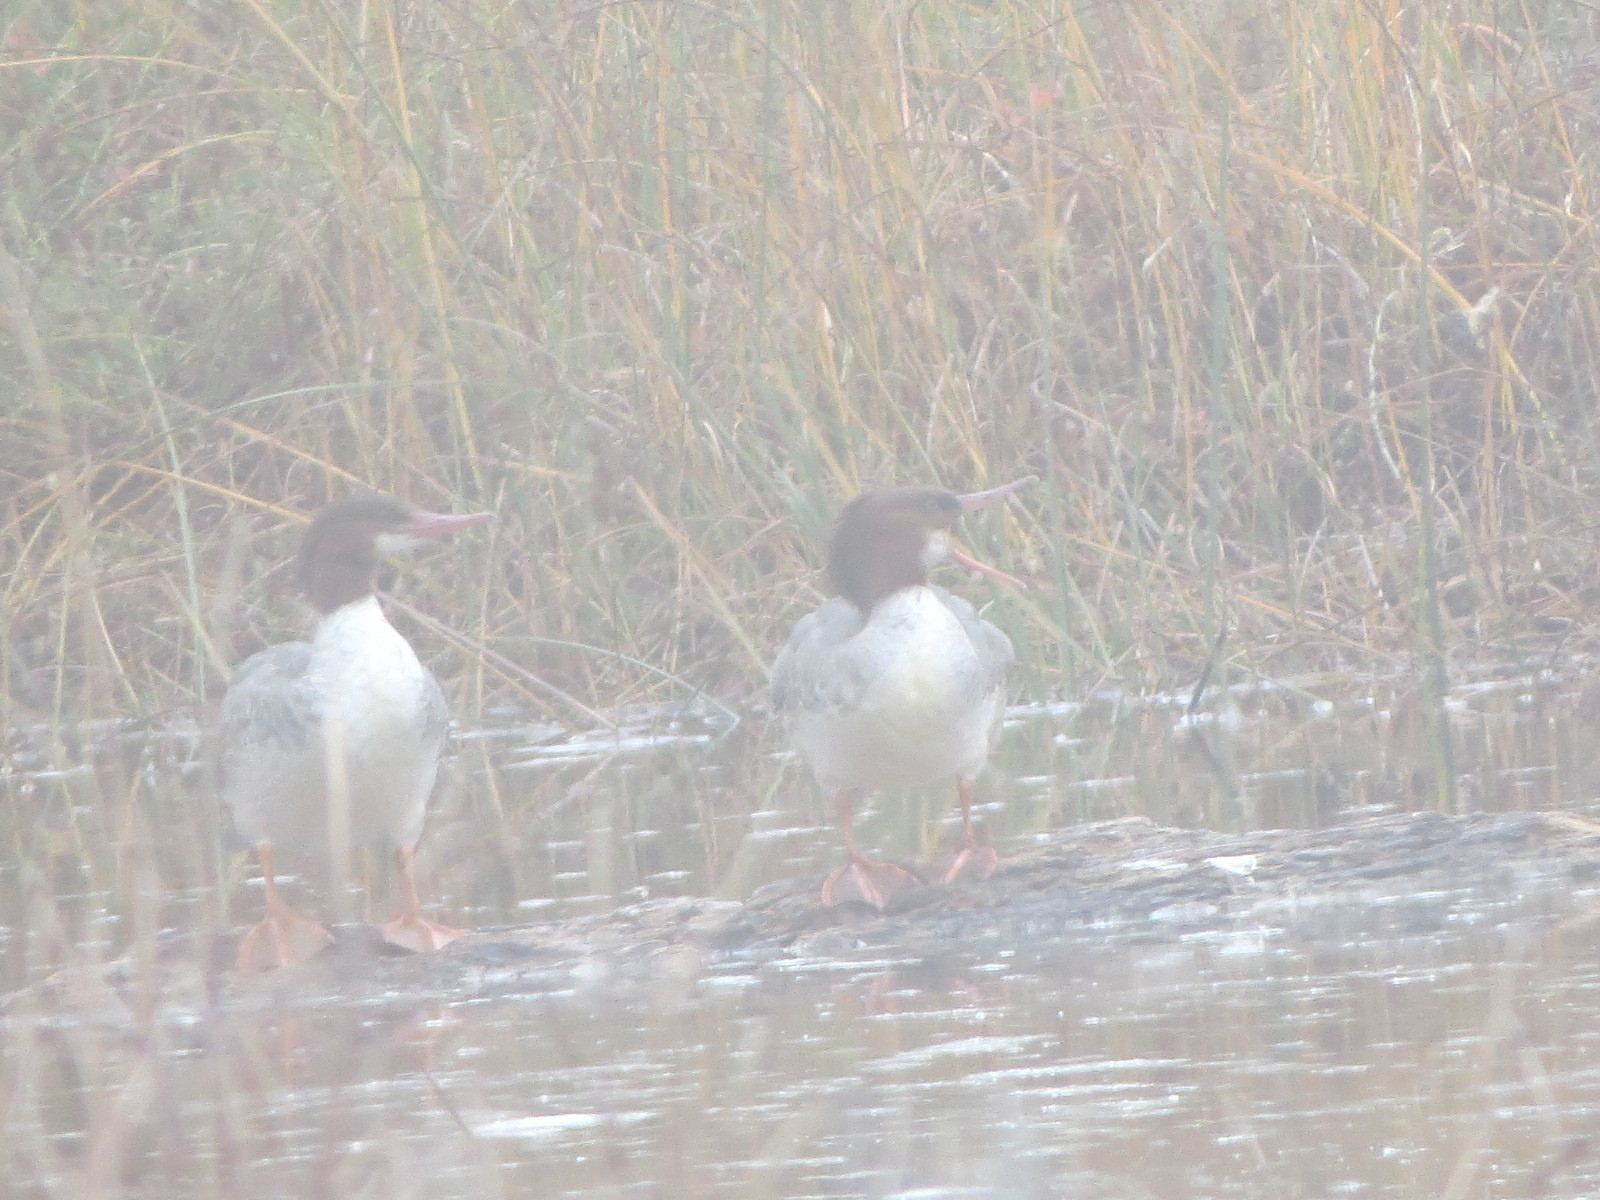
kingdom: Animalia
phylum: Chordata
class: Aves
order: Anseriformes
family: Anatidae
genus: Mergus
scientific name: Mergus merganser
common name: Common merganser
